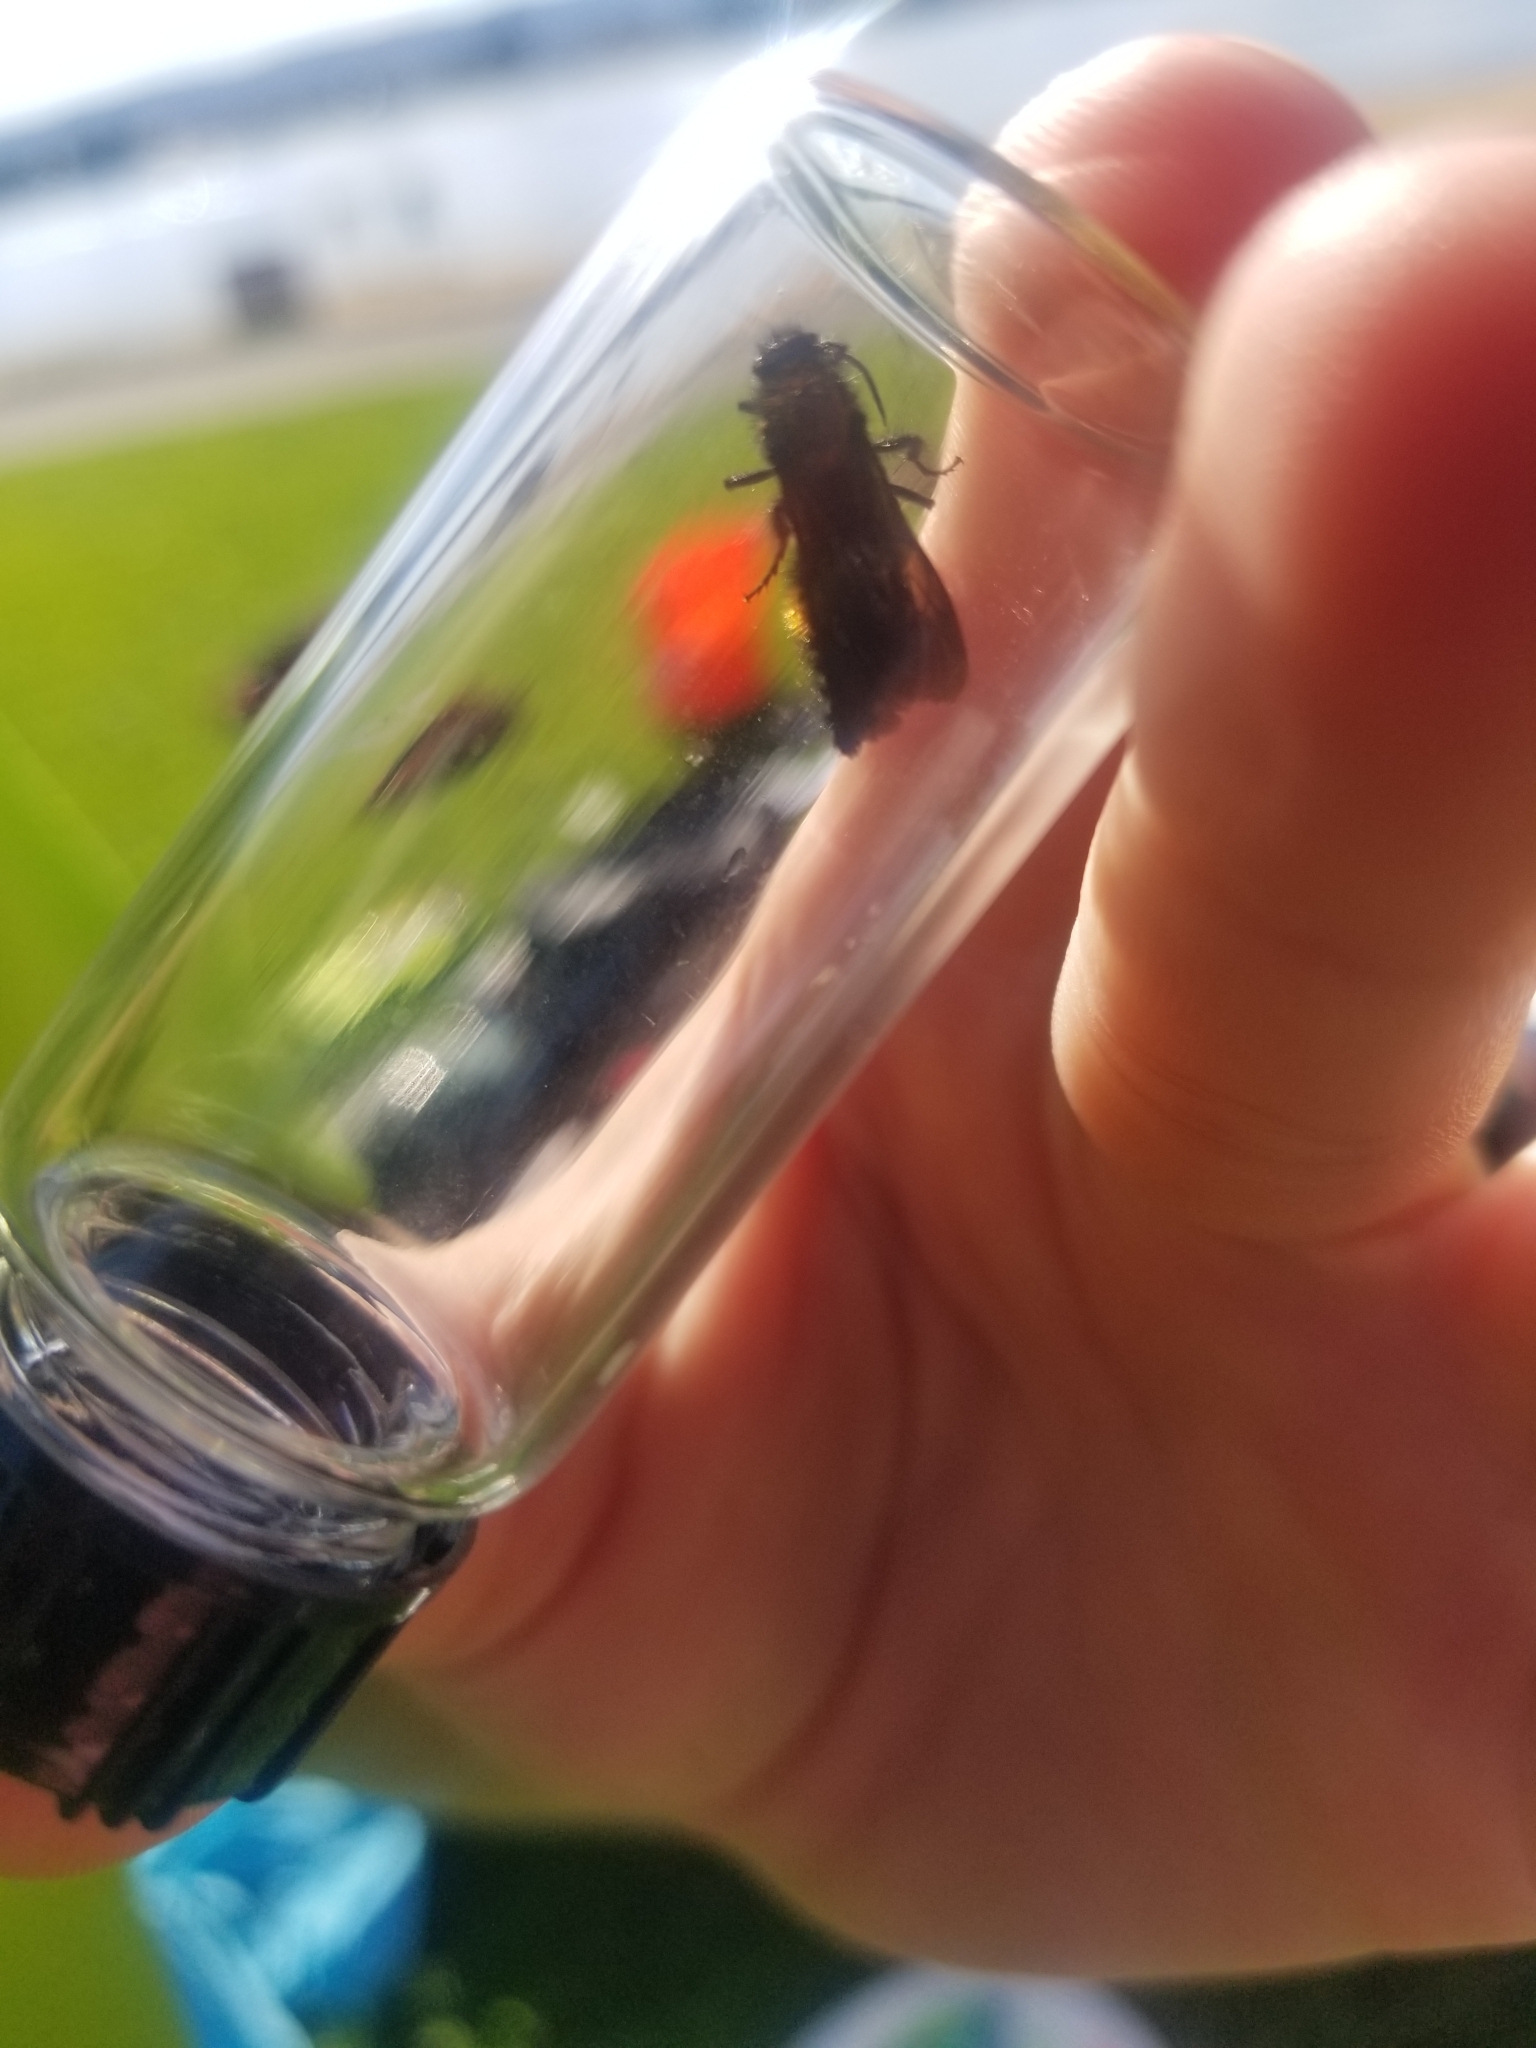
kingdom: Animalia
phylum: Arthropoda
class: Insecta
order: Hymenoptera
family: Mutillidae
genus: Dasymutilla
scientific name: Dasymutilla
